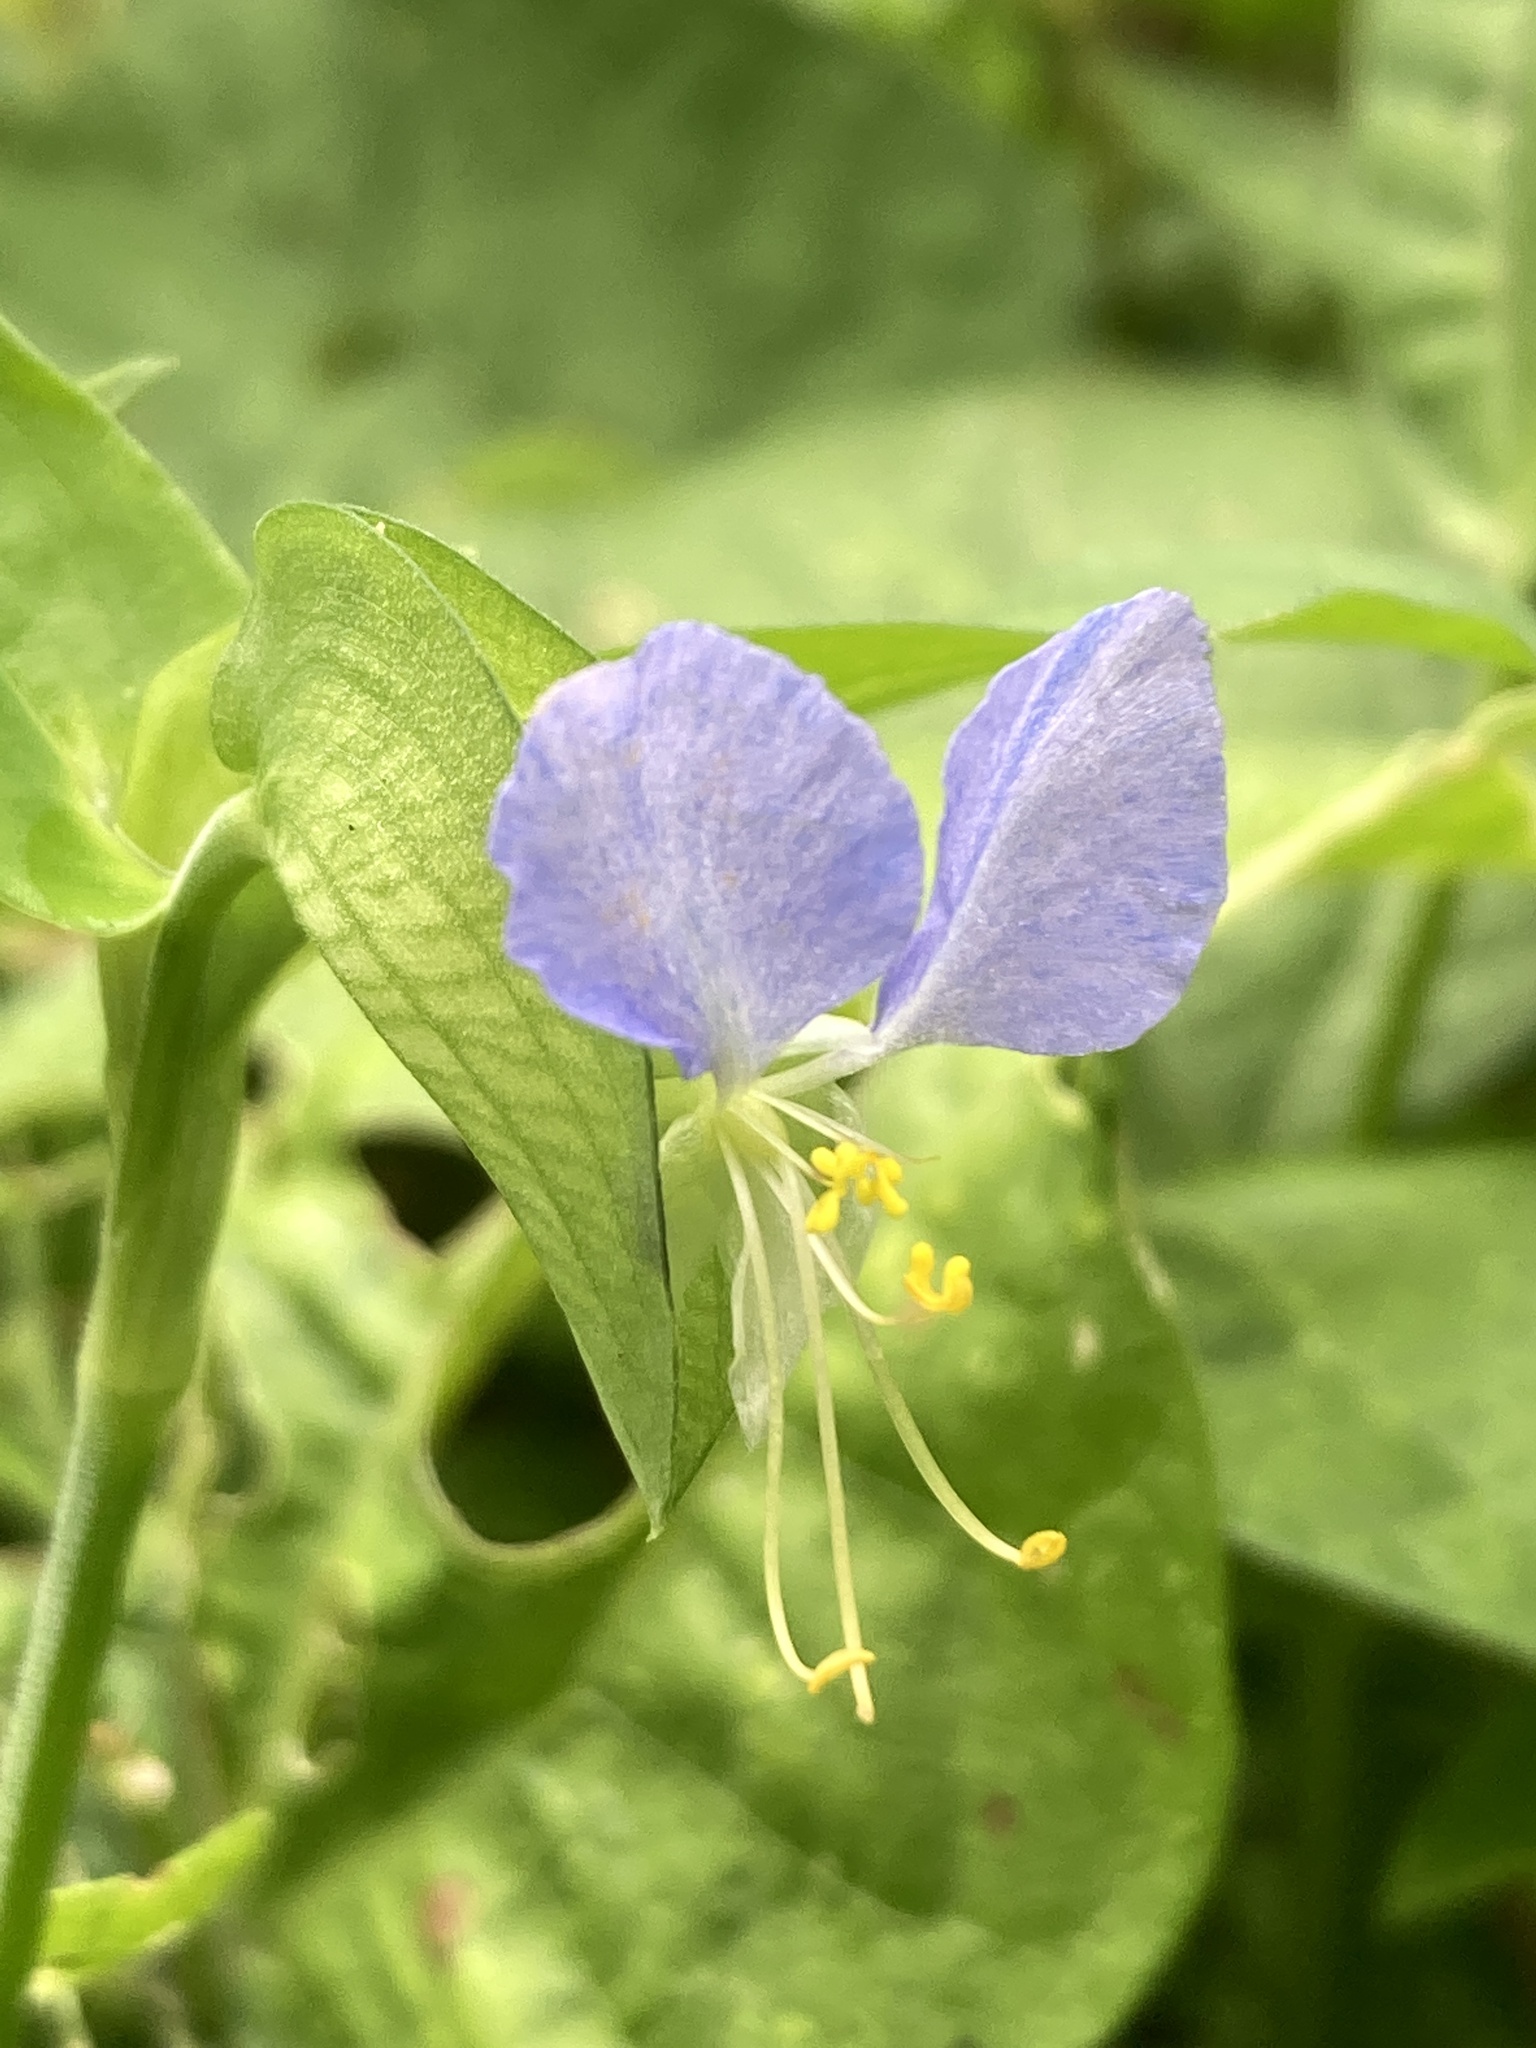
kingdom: Plantae
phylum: Tracheophyta
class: Liliopsida
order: Commelinales
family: Commelinaceae
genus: Commelina
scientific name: Commelina communis
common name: Asiatic dayflower
